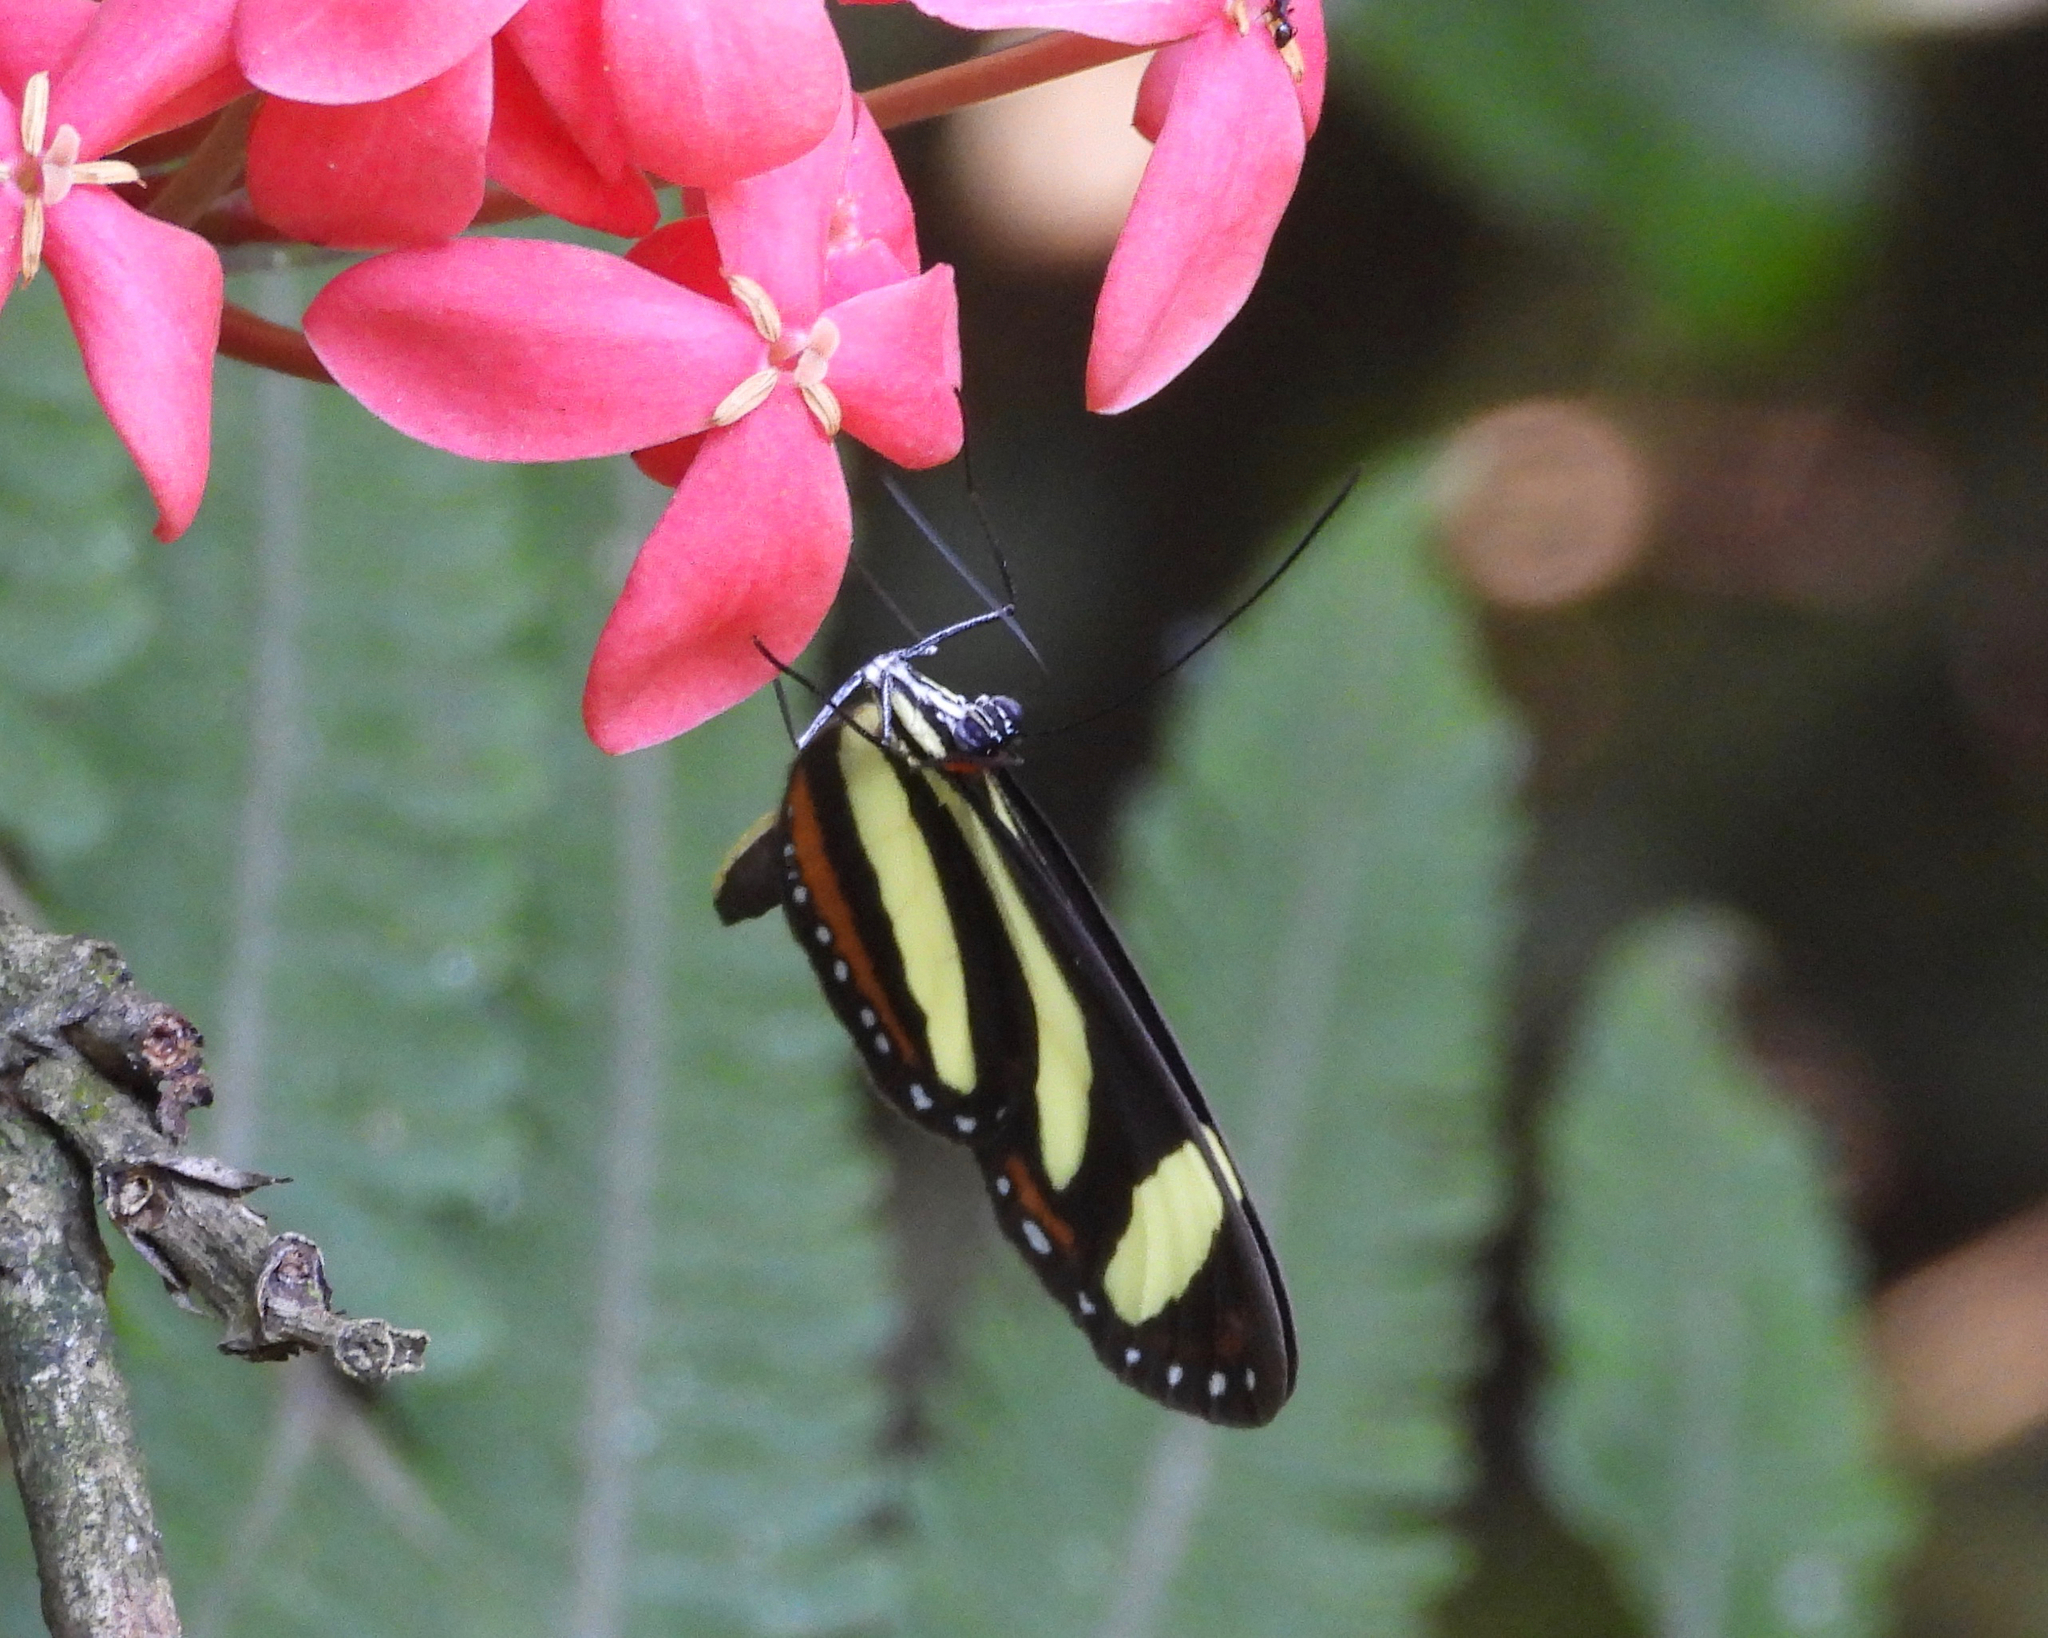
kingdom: Animalia
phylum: Arthropoda
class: Insecta
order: Lepidoptera
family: Nymphalidae
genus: Aeria
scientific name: Aeria eurimedia
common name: Banded tigerwing
